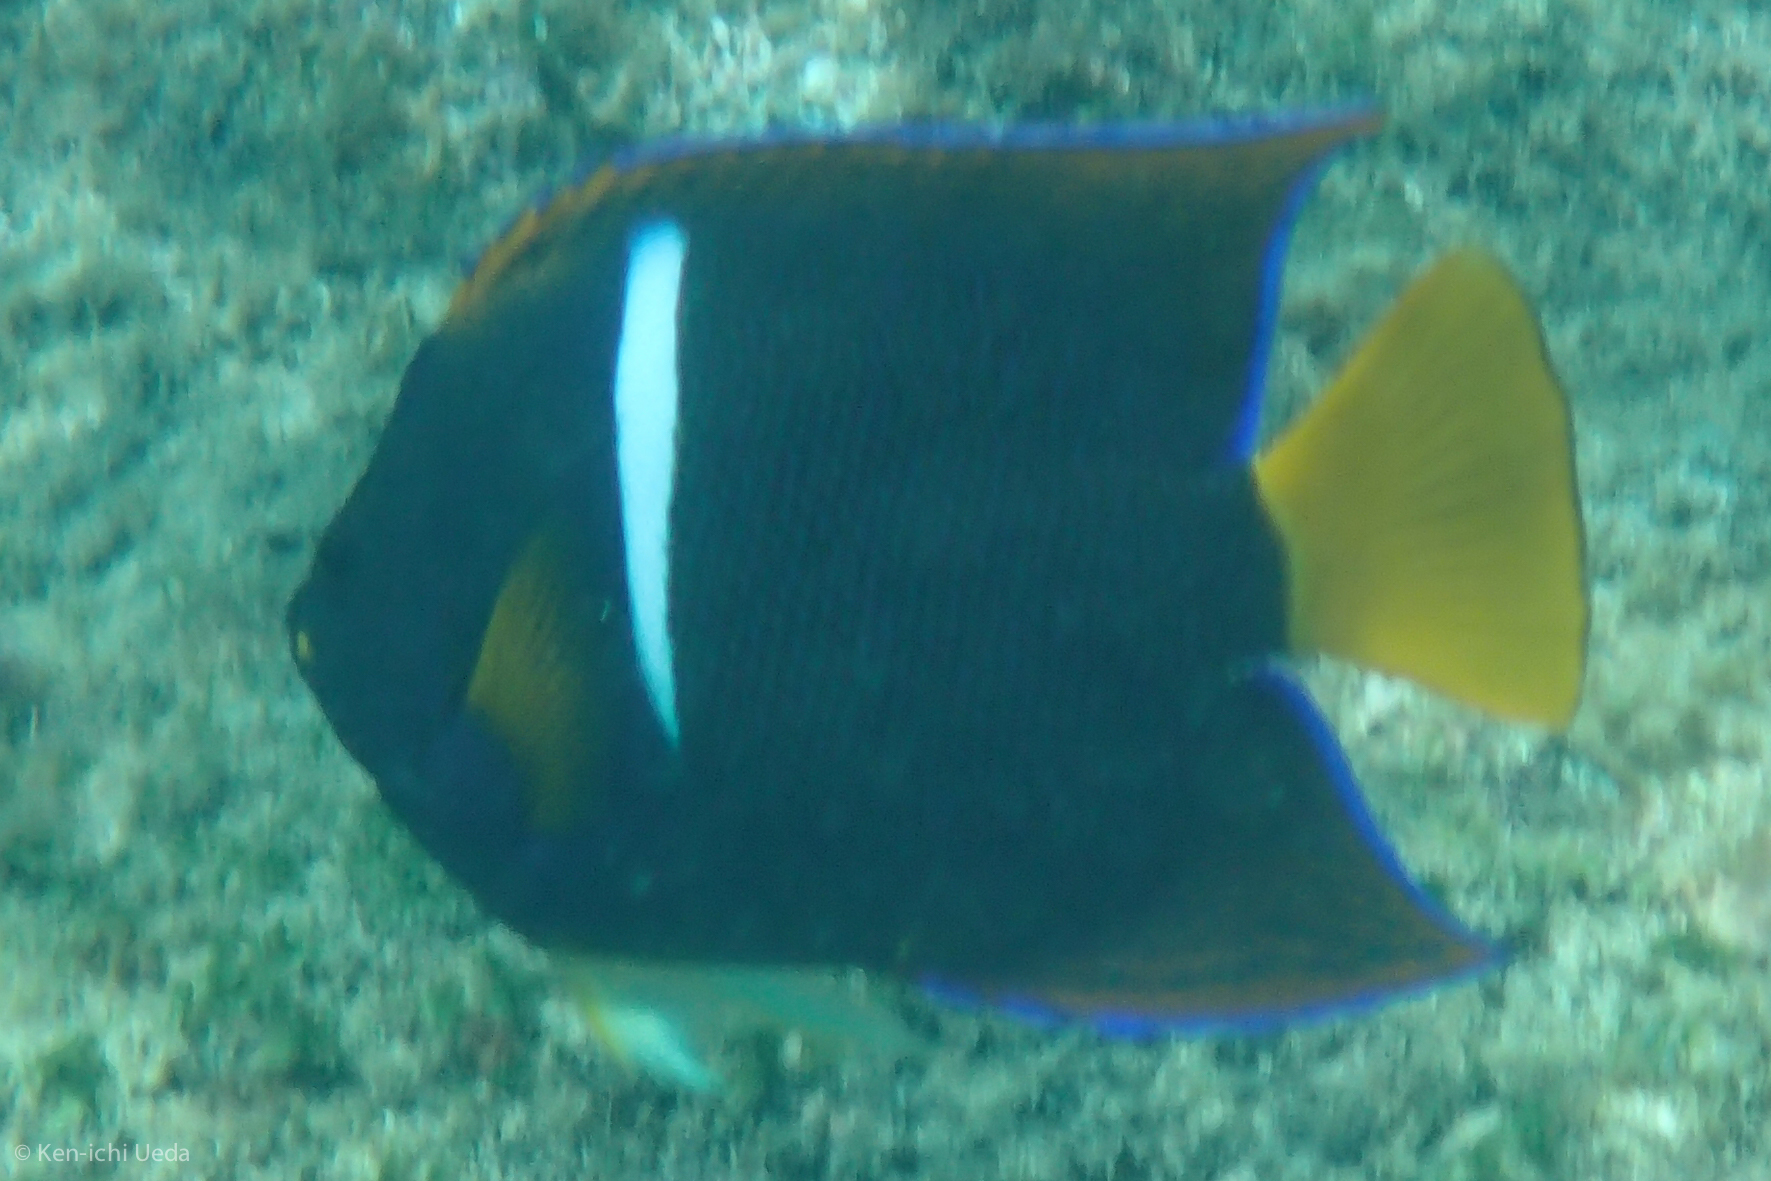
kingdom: Animalia
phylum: Chordata
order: Perciformes
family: Pomacanthidae
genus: Holacanthus
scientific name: Holacanthus passer
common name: King angelfish
